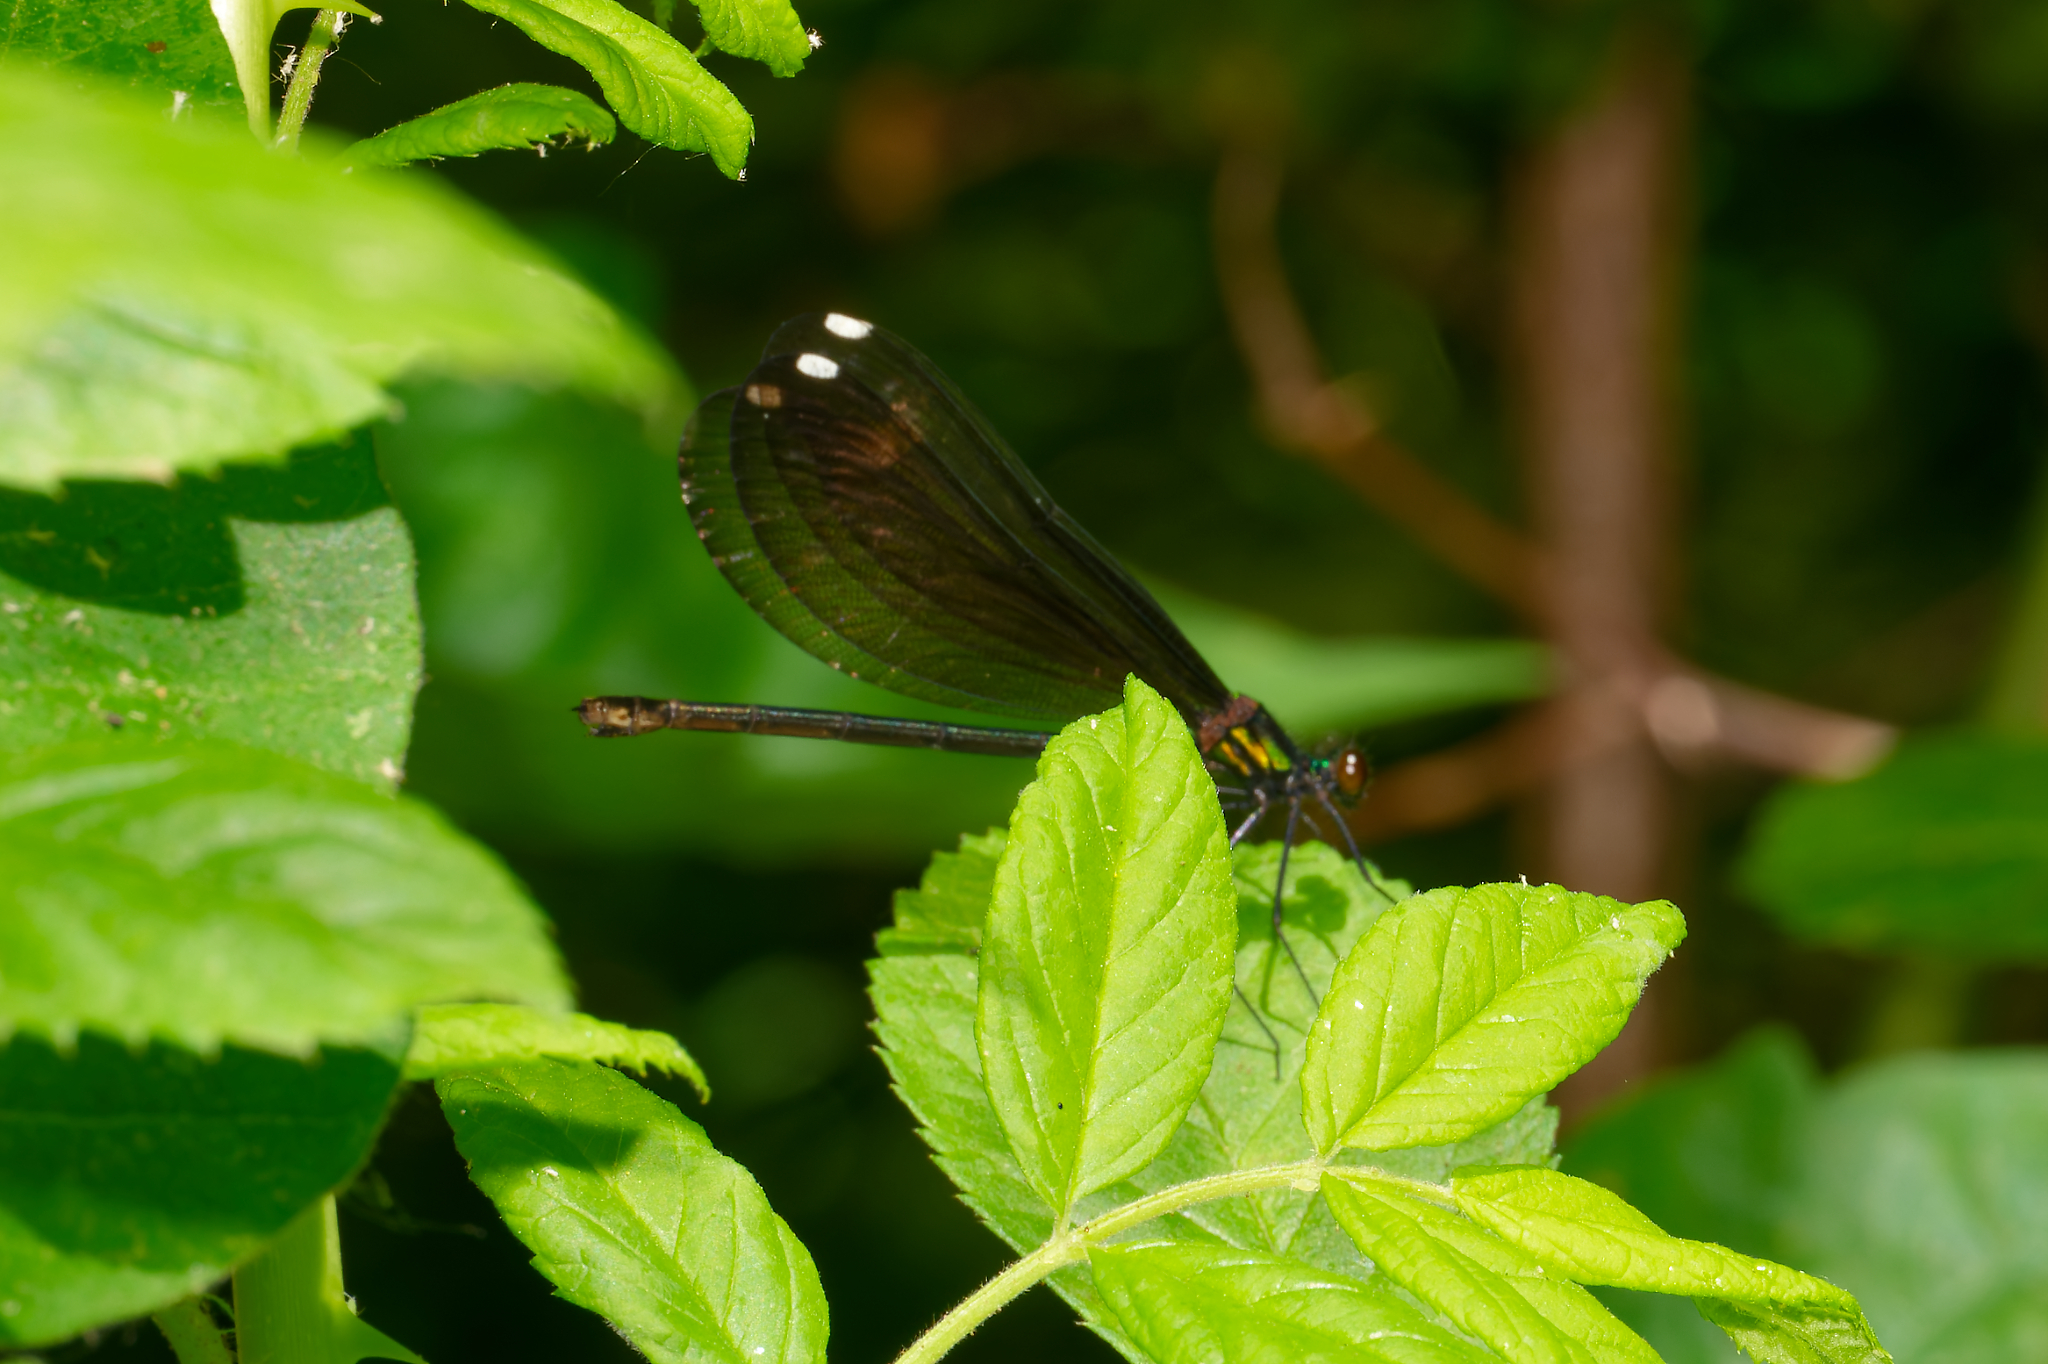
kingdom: Animalia
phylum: Arthropoda
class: Insecta
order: Odonata
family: Calopterygidae
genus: Calopteryx
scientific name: Calopteryx maculata
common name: Ebony jewelwing
